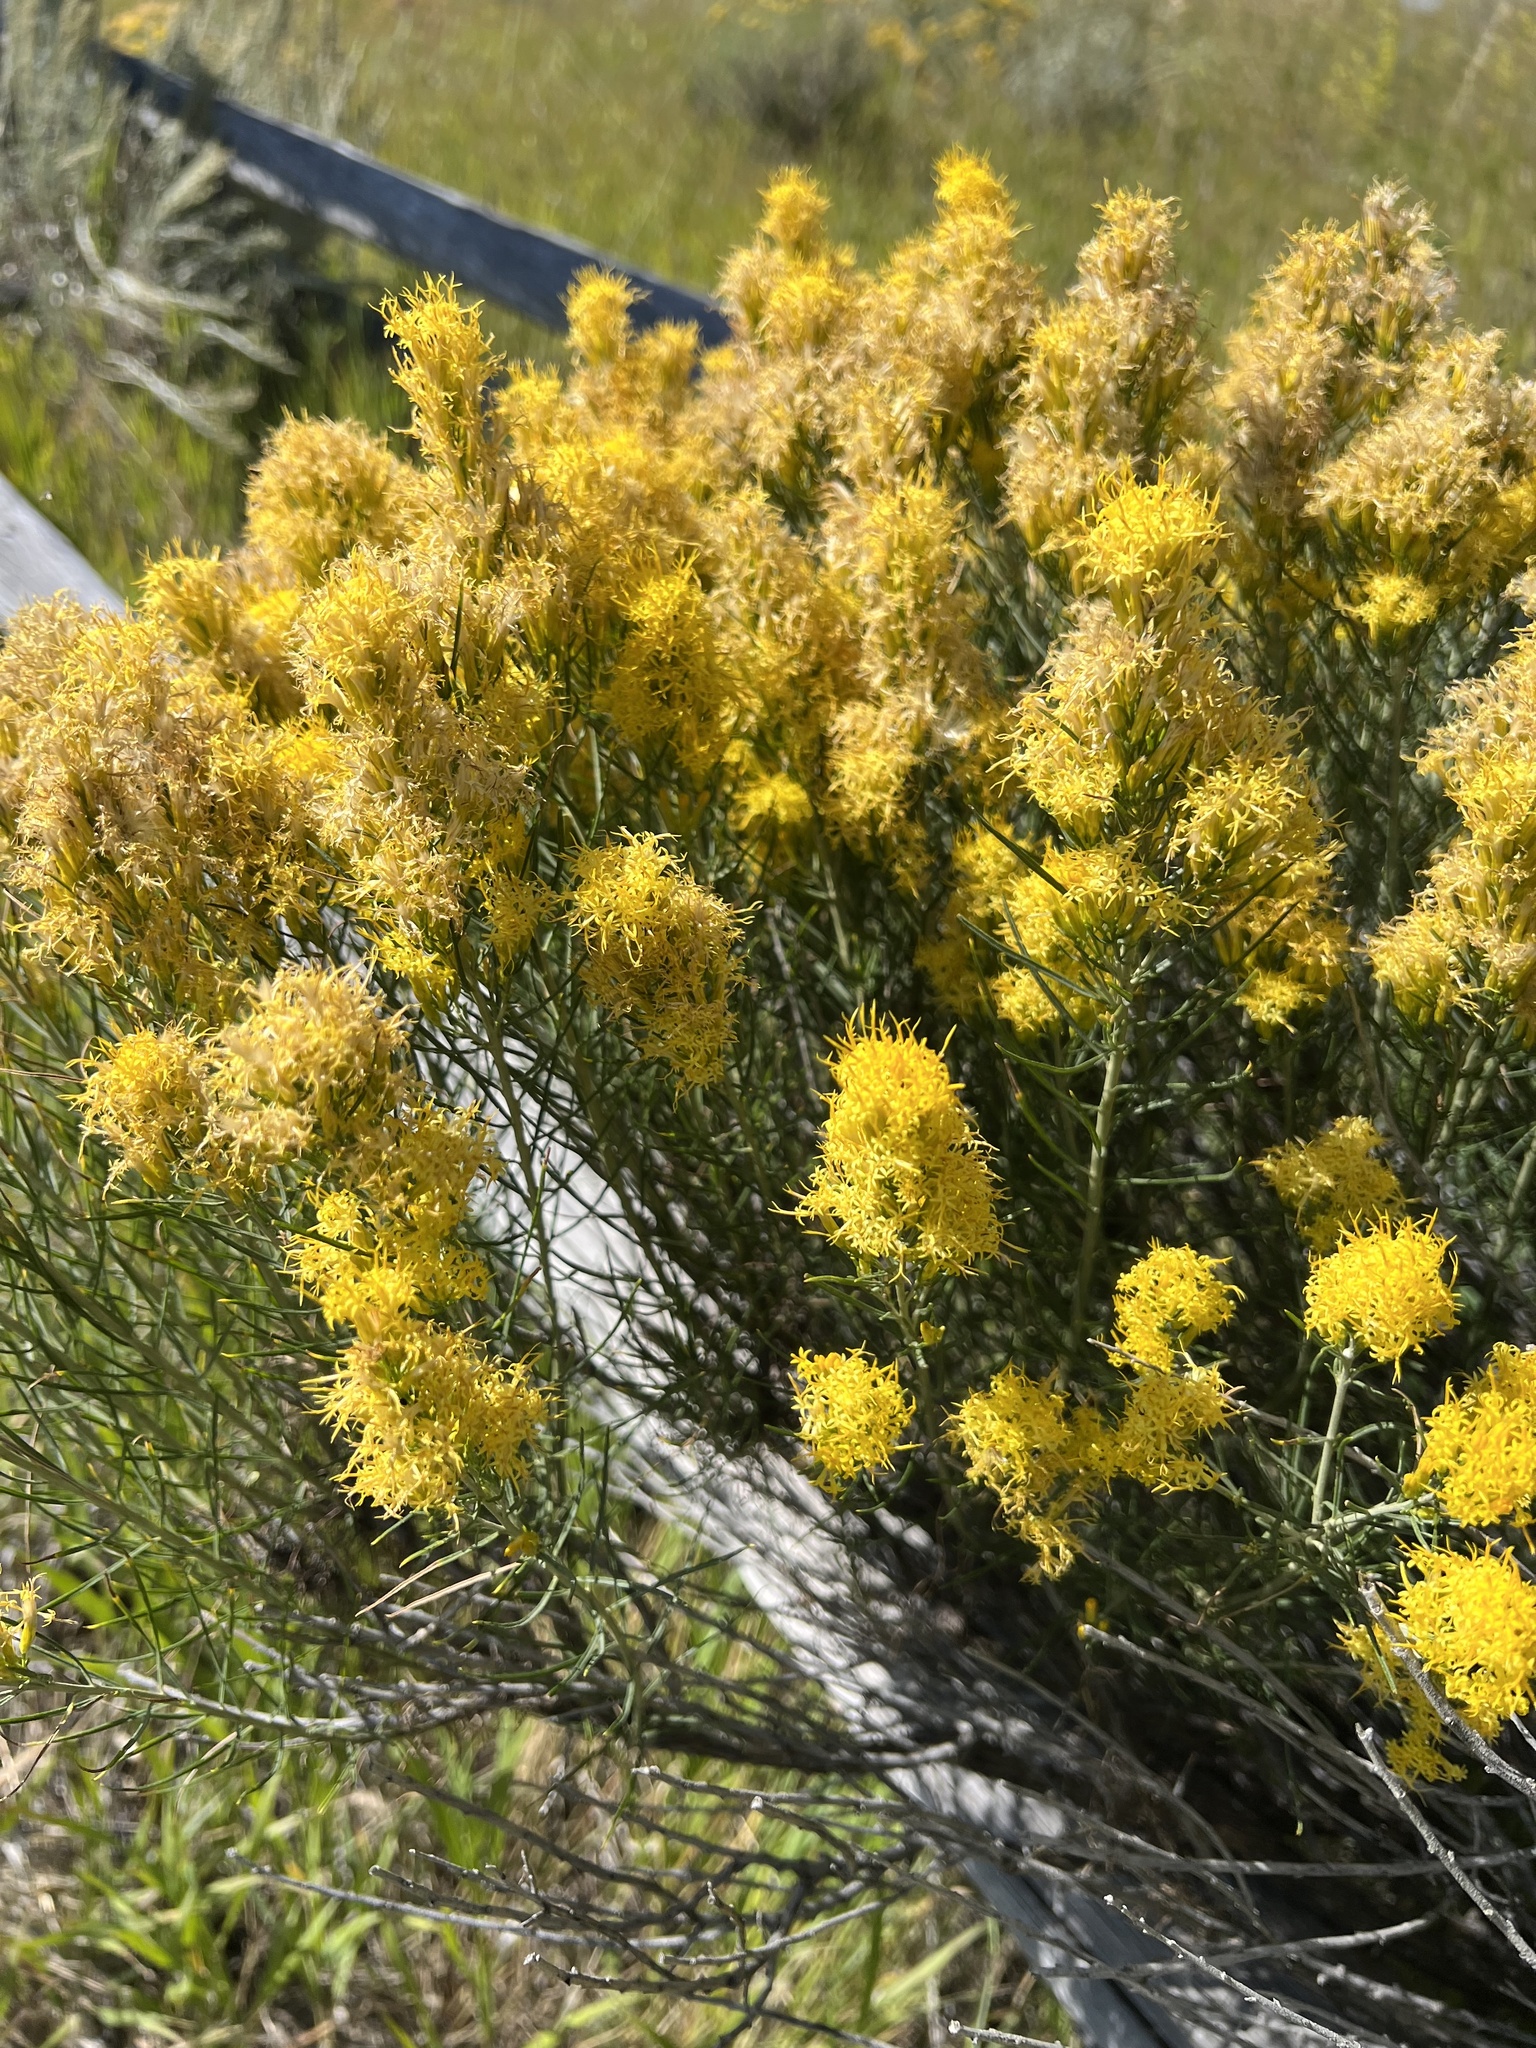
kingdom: Plantae
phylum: Tracheophyta
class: Magnoliopsida
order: Asterales
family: Asteraceae
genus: Ericameria
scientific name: Ericameria nauseosa
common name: Rubber rabbitbrush
